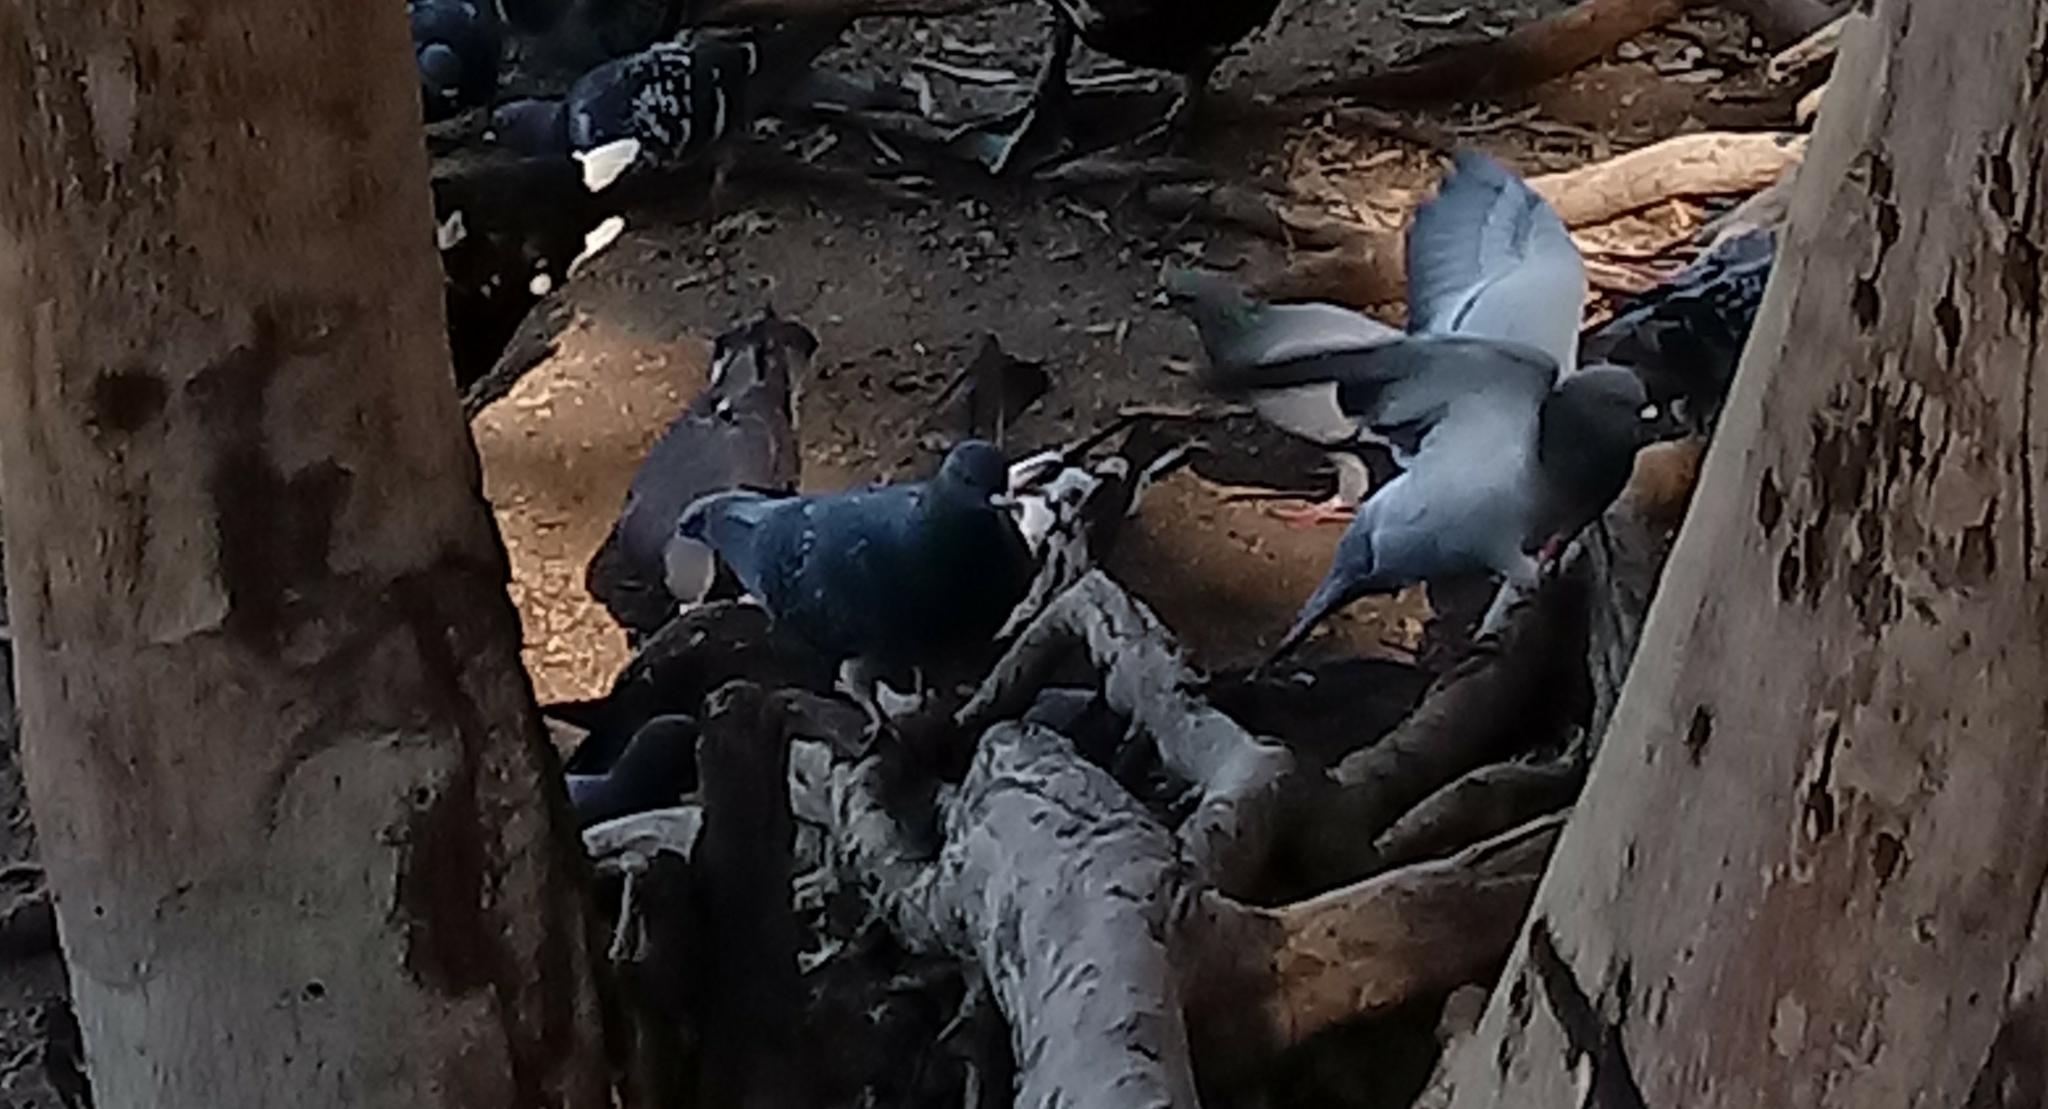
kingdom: Animalia
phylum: Chordata
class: Aves
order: Columbiformes
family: Columbidae
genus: Columba
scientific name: Columba livia
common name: Rock pigeon
